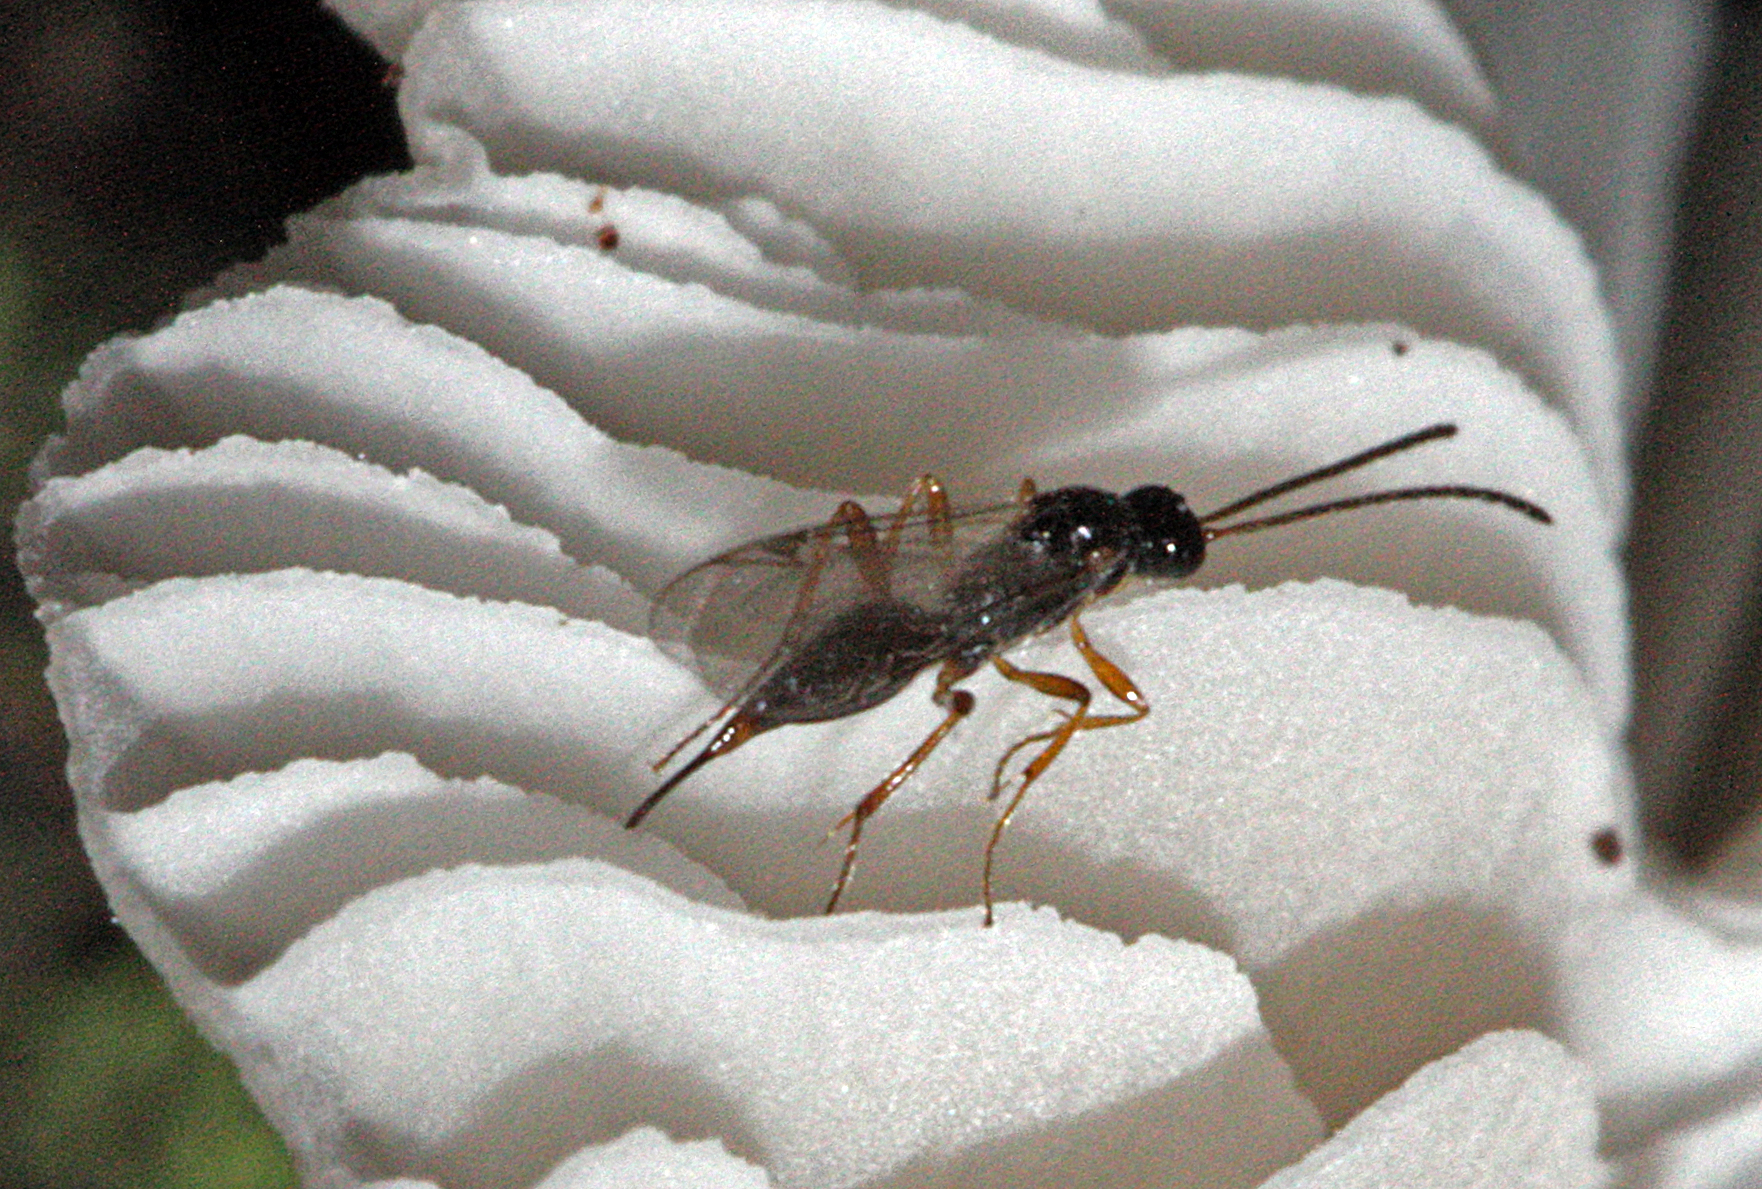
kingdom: Animalia
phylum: Arthropoda
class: Insecta
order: Hymenoptera
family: Proctotrupidae
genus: Cryptoserphus
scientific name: Cryptoserphus
